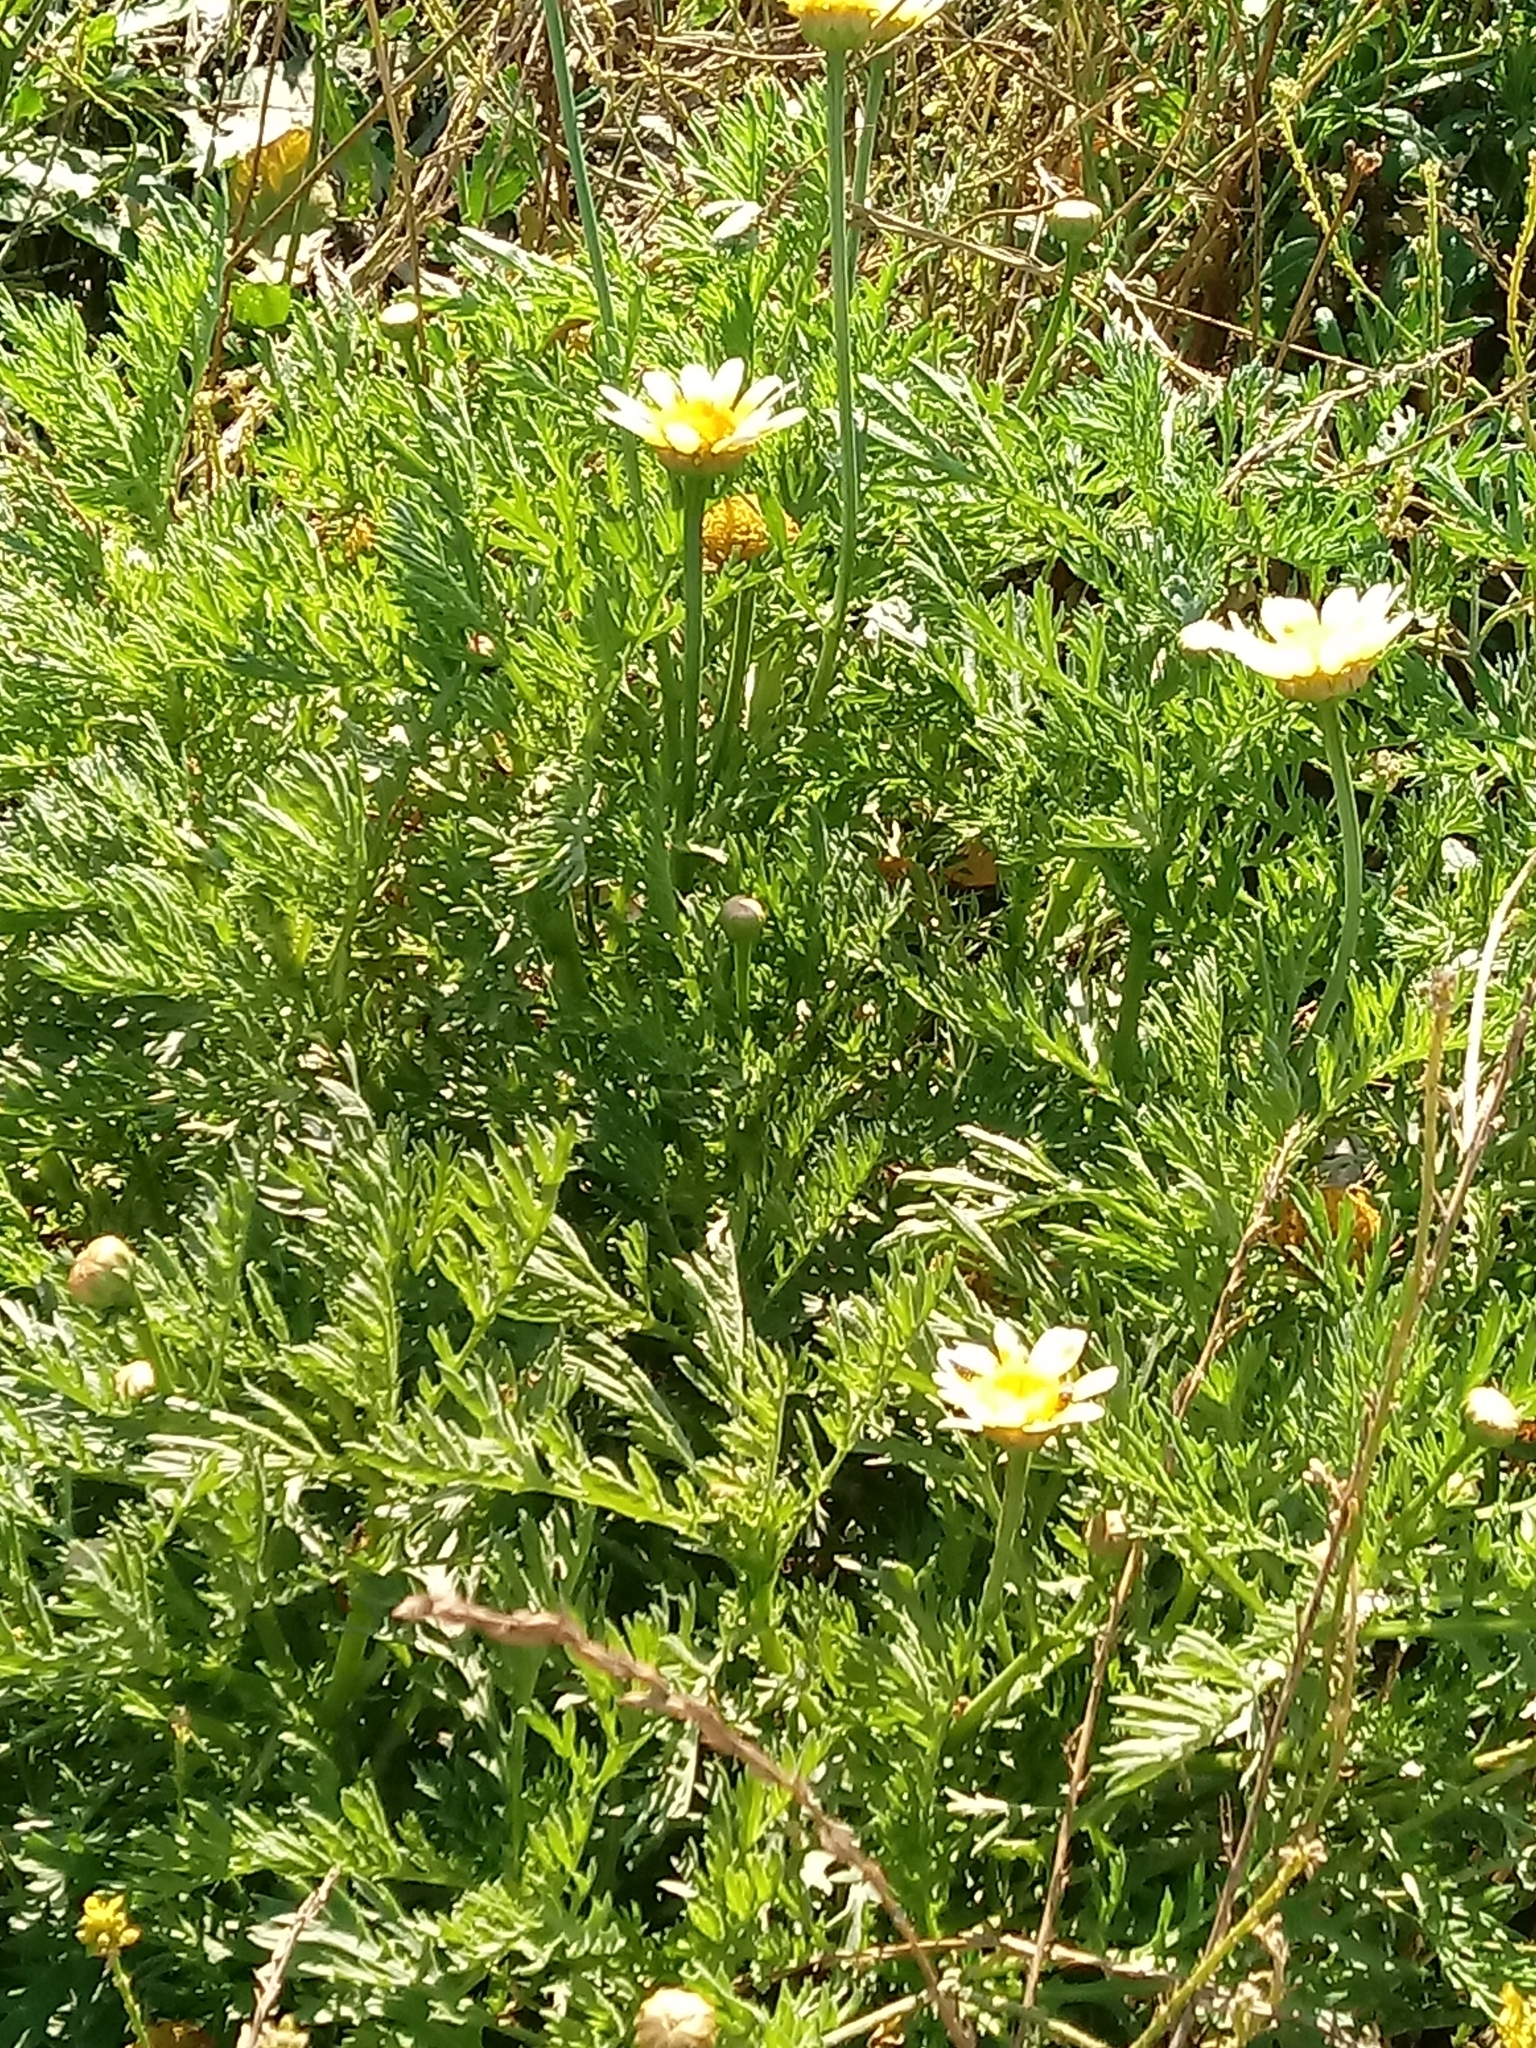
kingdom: Plantae
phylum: Tracheophyta
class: Magnoliopsida
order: Asterales
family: Asteraceae
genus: Glebionis
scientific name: Glebionis coronaria
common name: Crowndaisy
